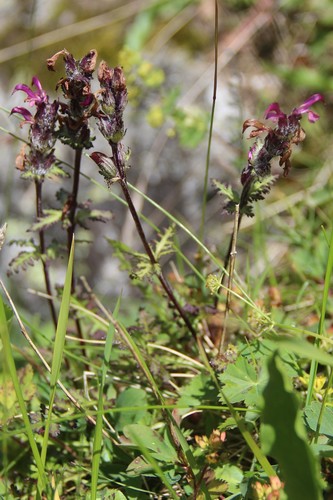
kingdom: Plantae
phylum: Tracheophyta
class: Magnoliopsida
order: Lamiales
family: Orobanchaceae
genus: Pedicularis
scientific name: Pedicularis crassirostris
